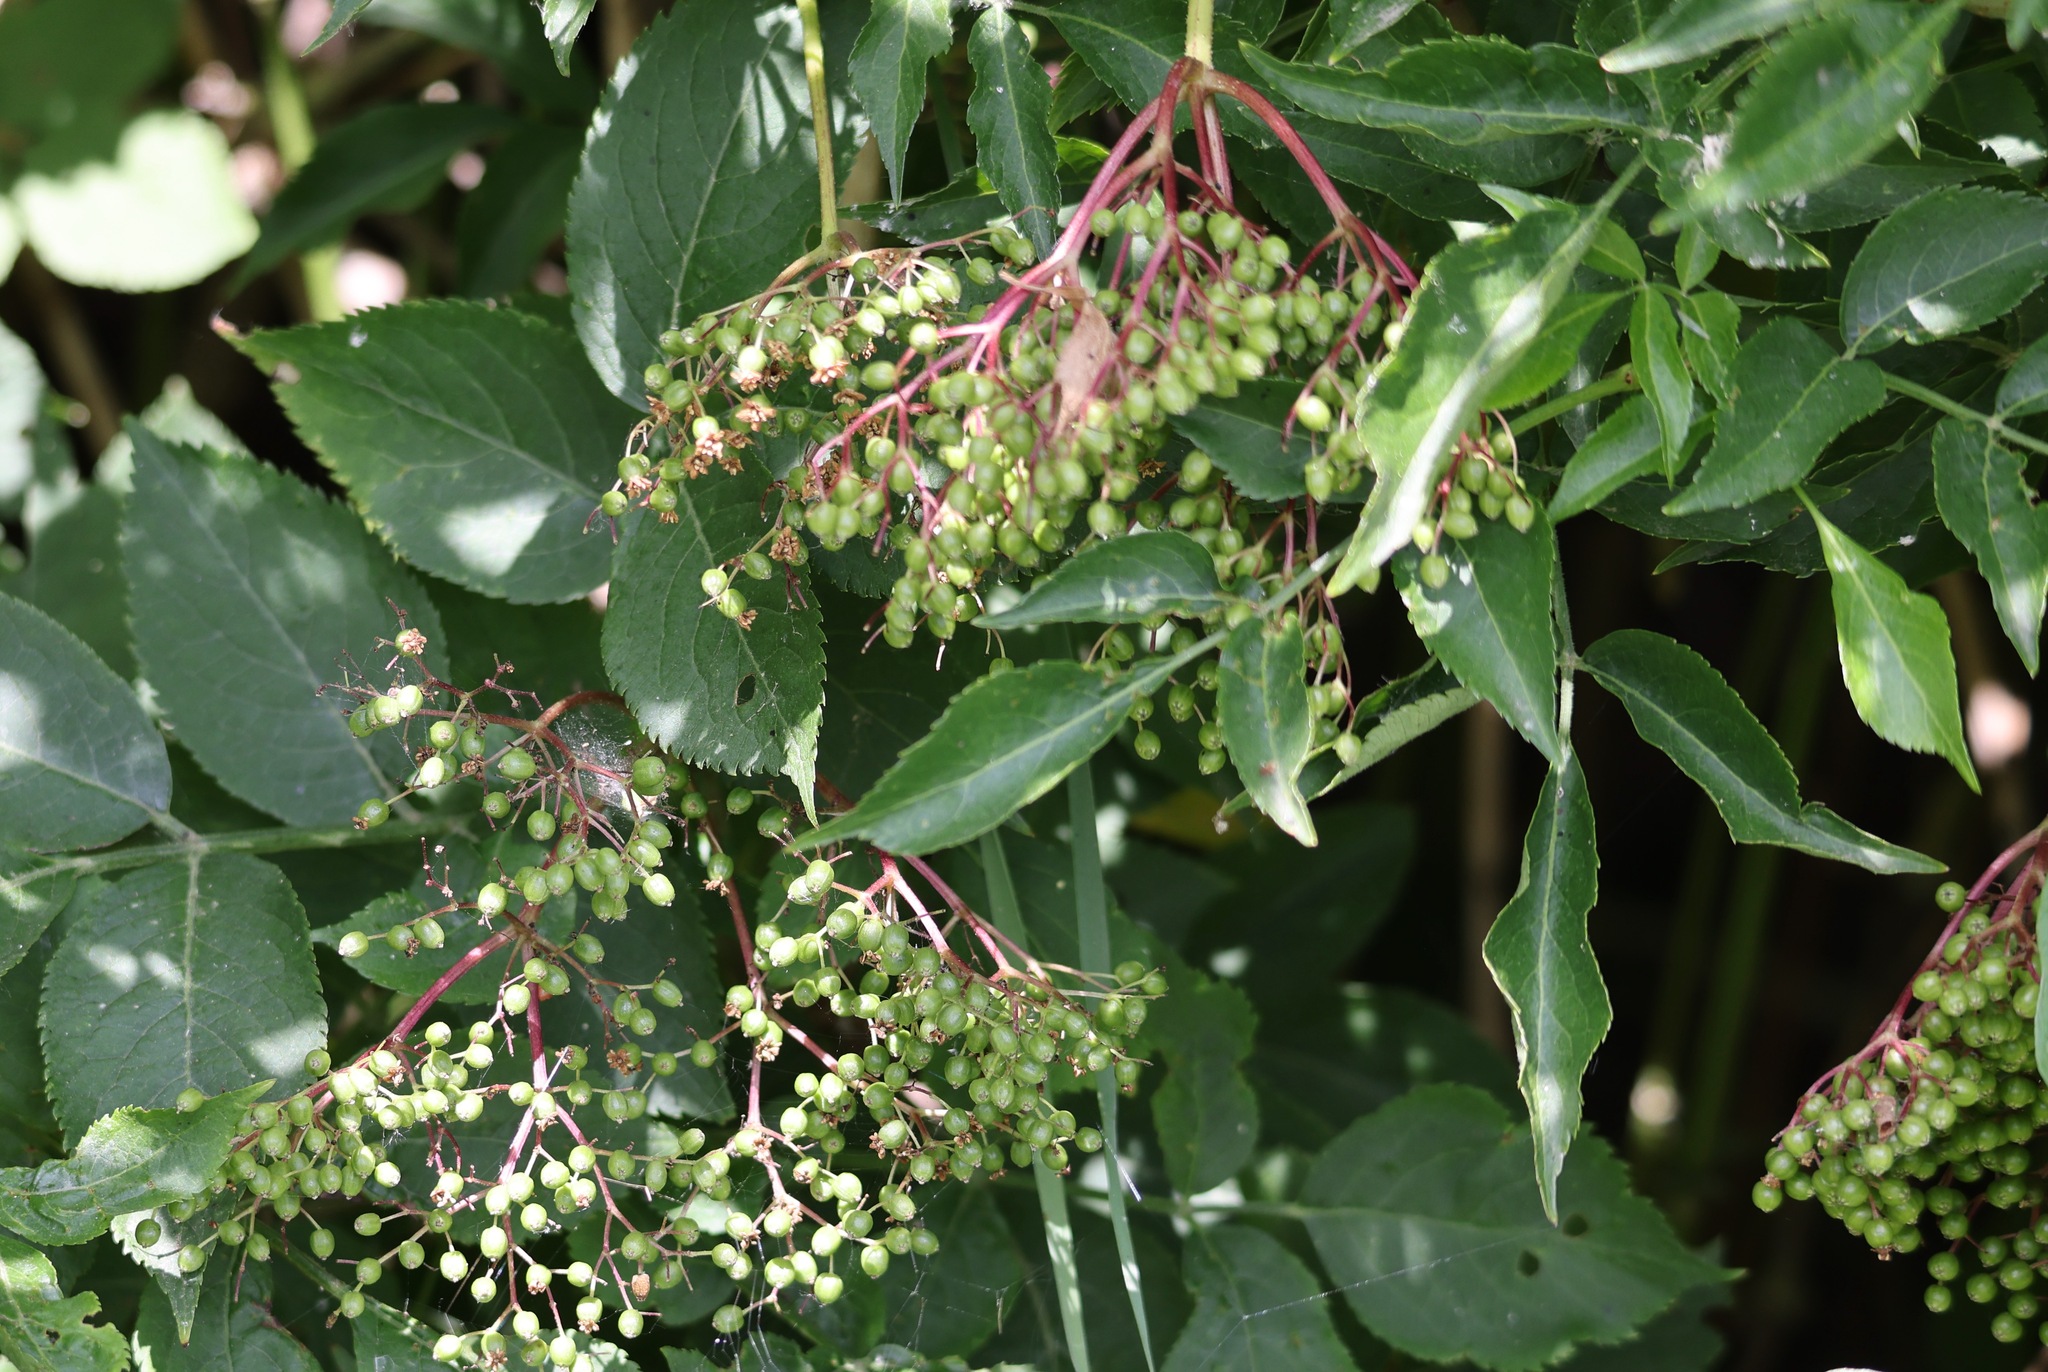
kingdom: Plantae
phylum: Tracheophyta
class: Magnoliopsida
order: Dipsacales
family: Viburnaceae
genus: Sambucus
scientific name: Sambucus nigra
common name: Elder
